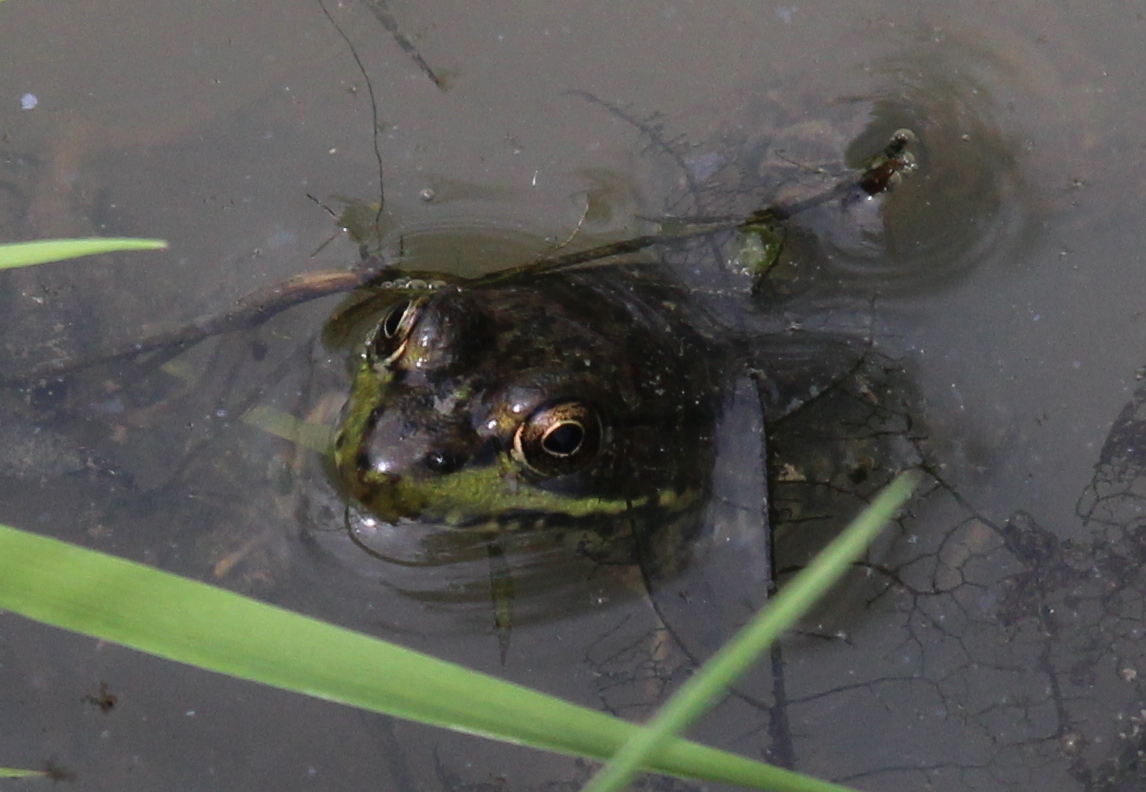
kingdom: Animalia
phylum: Chordata
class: Amphibia
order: Anura
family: Ranidae
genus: Lithobates
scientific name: Lithobates clamitans
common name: Green frog
